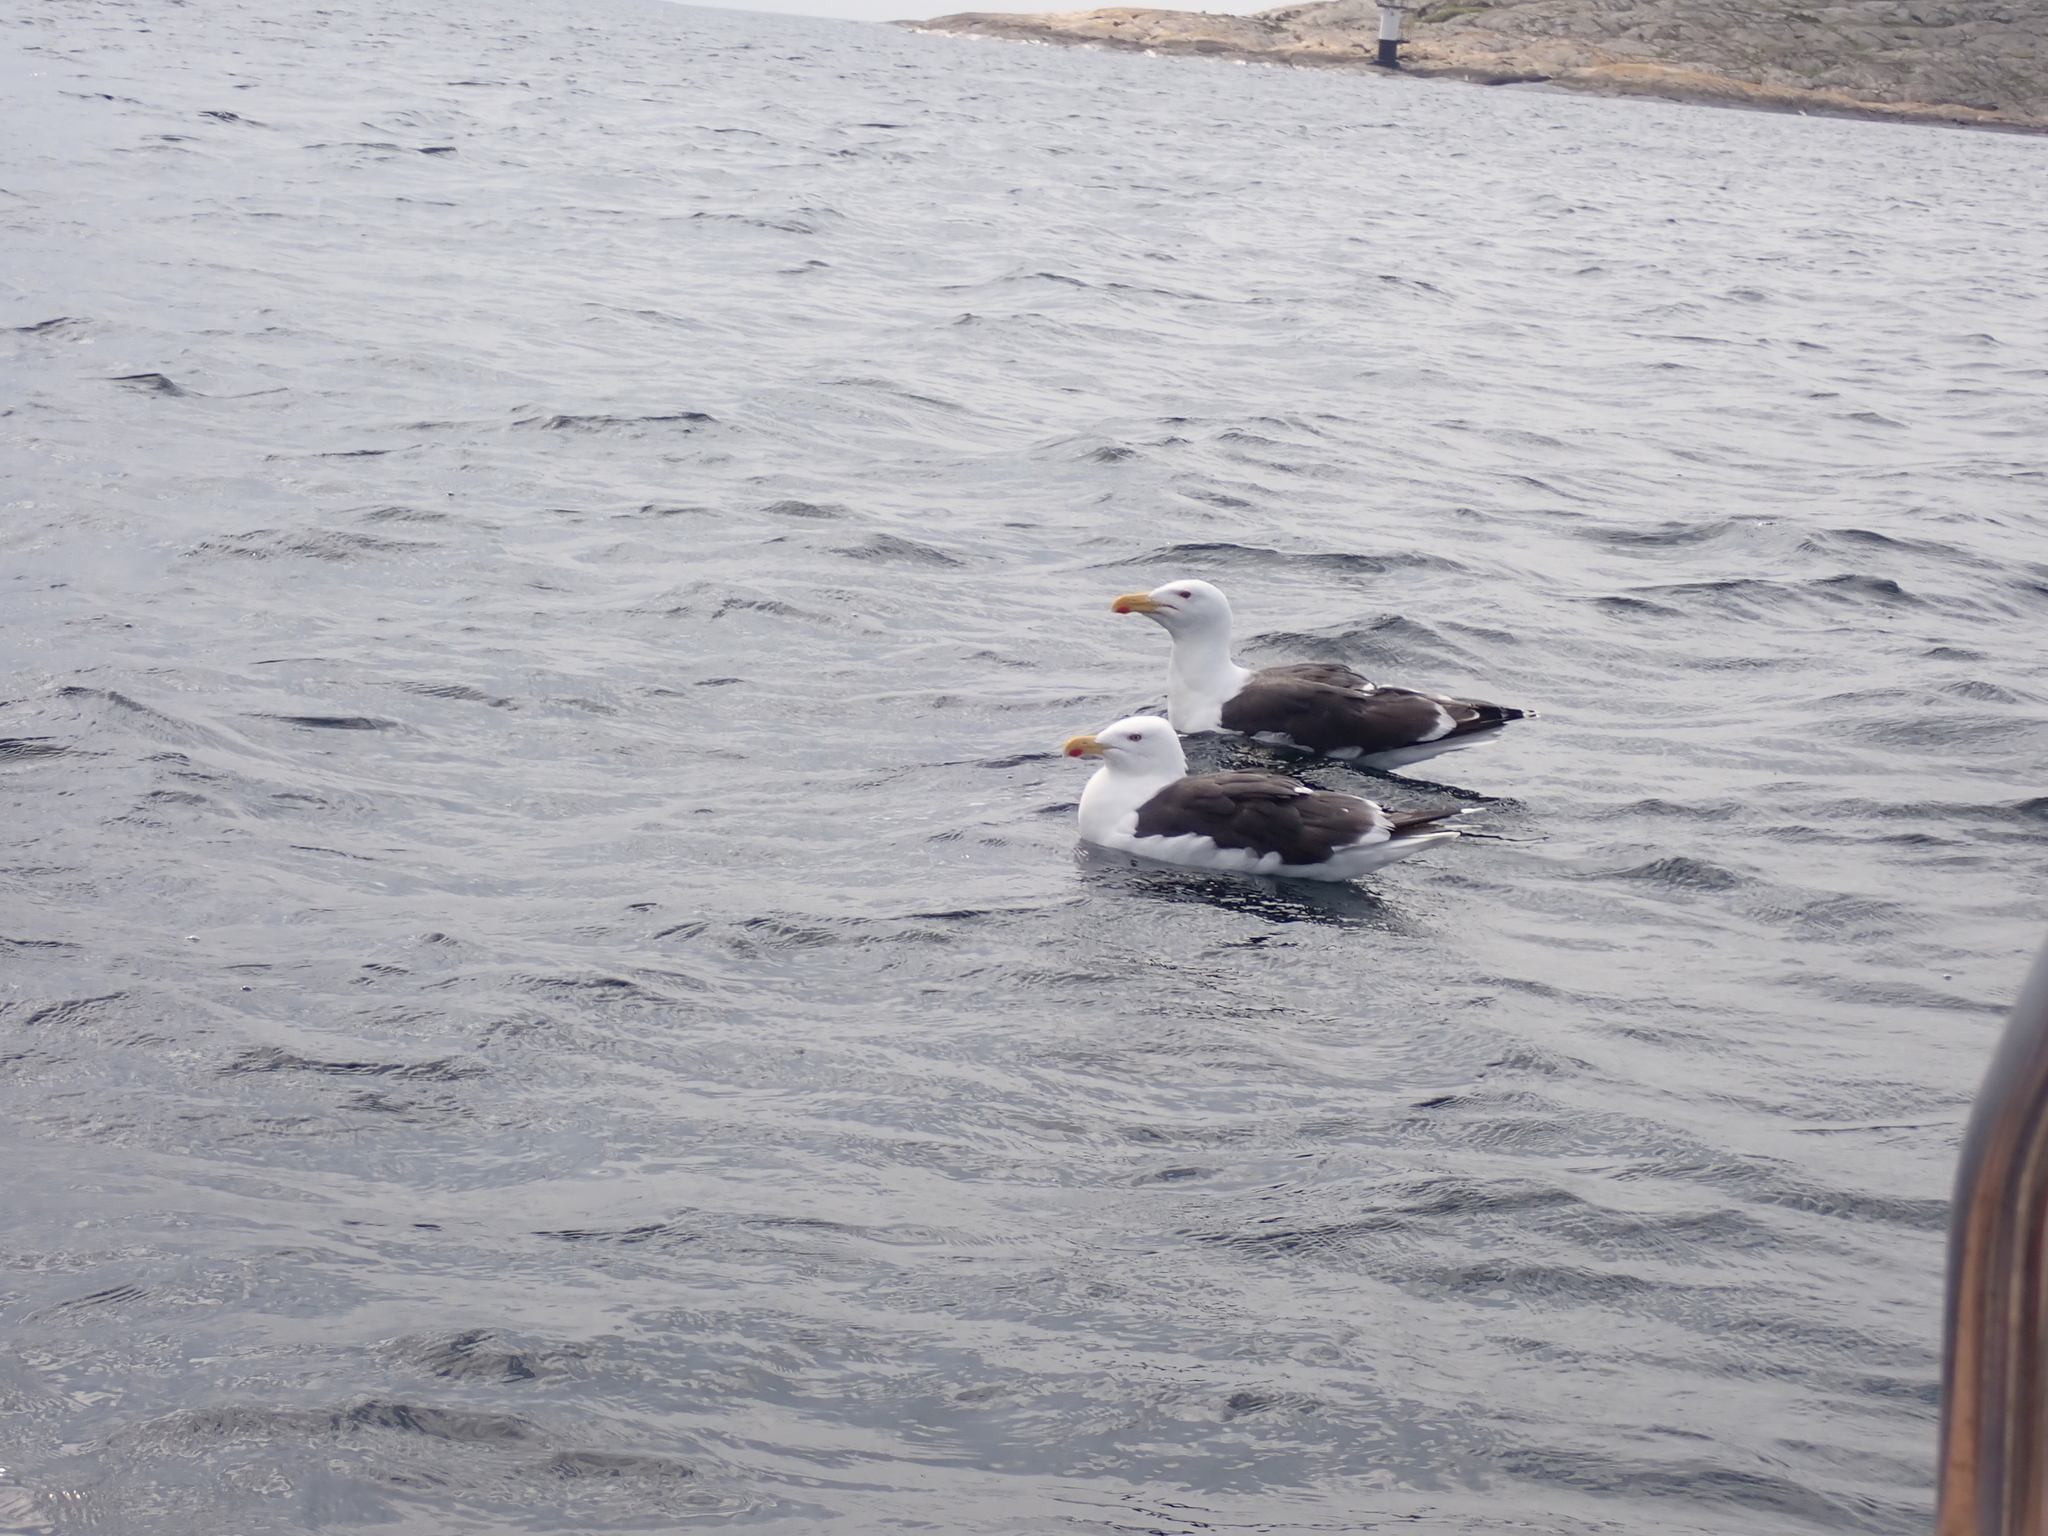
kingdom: Animalia
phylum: Chordata
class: Aves
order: Charadriiformes
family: Laridae
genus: Larus
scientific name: Larus marinus
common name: Great black-backed gull
